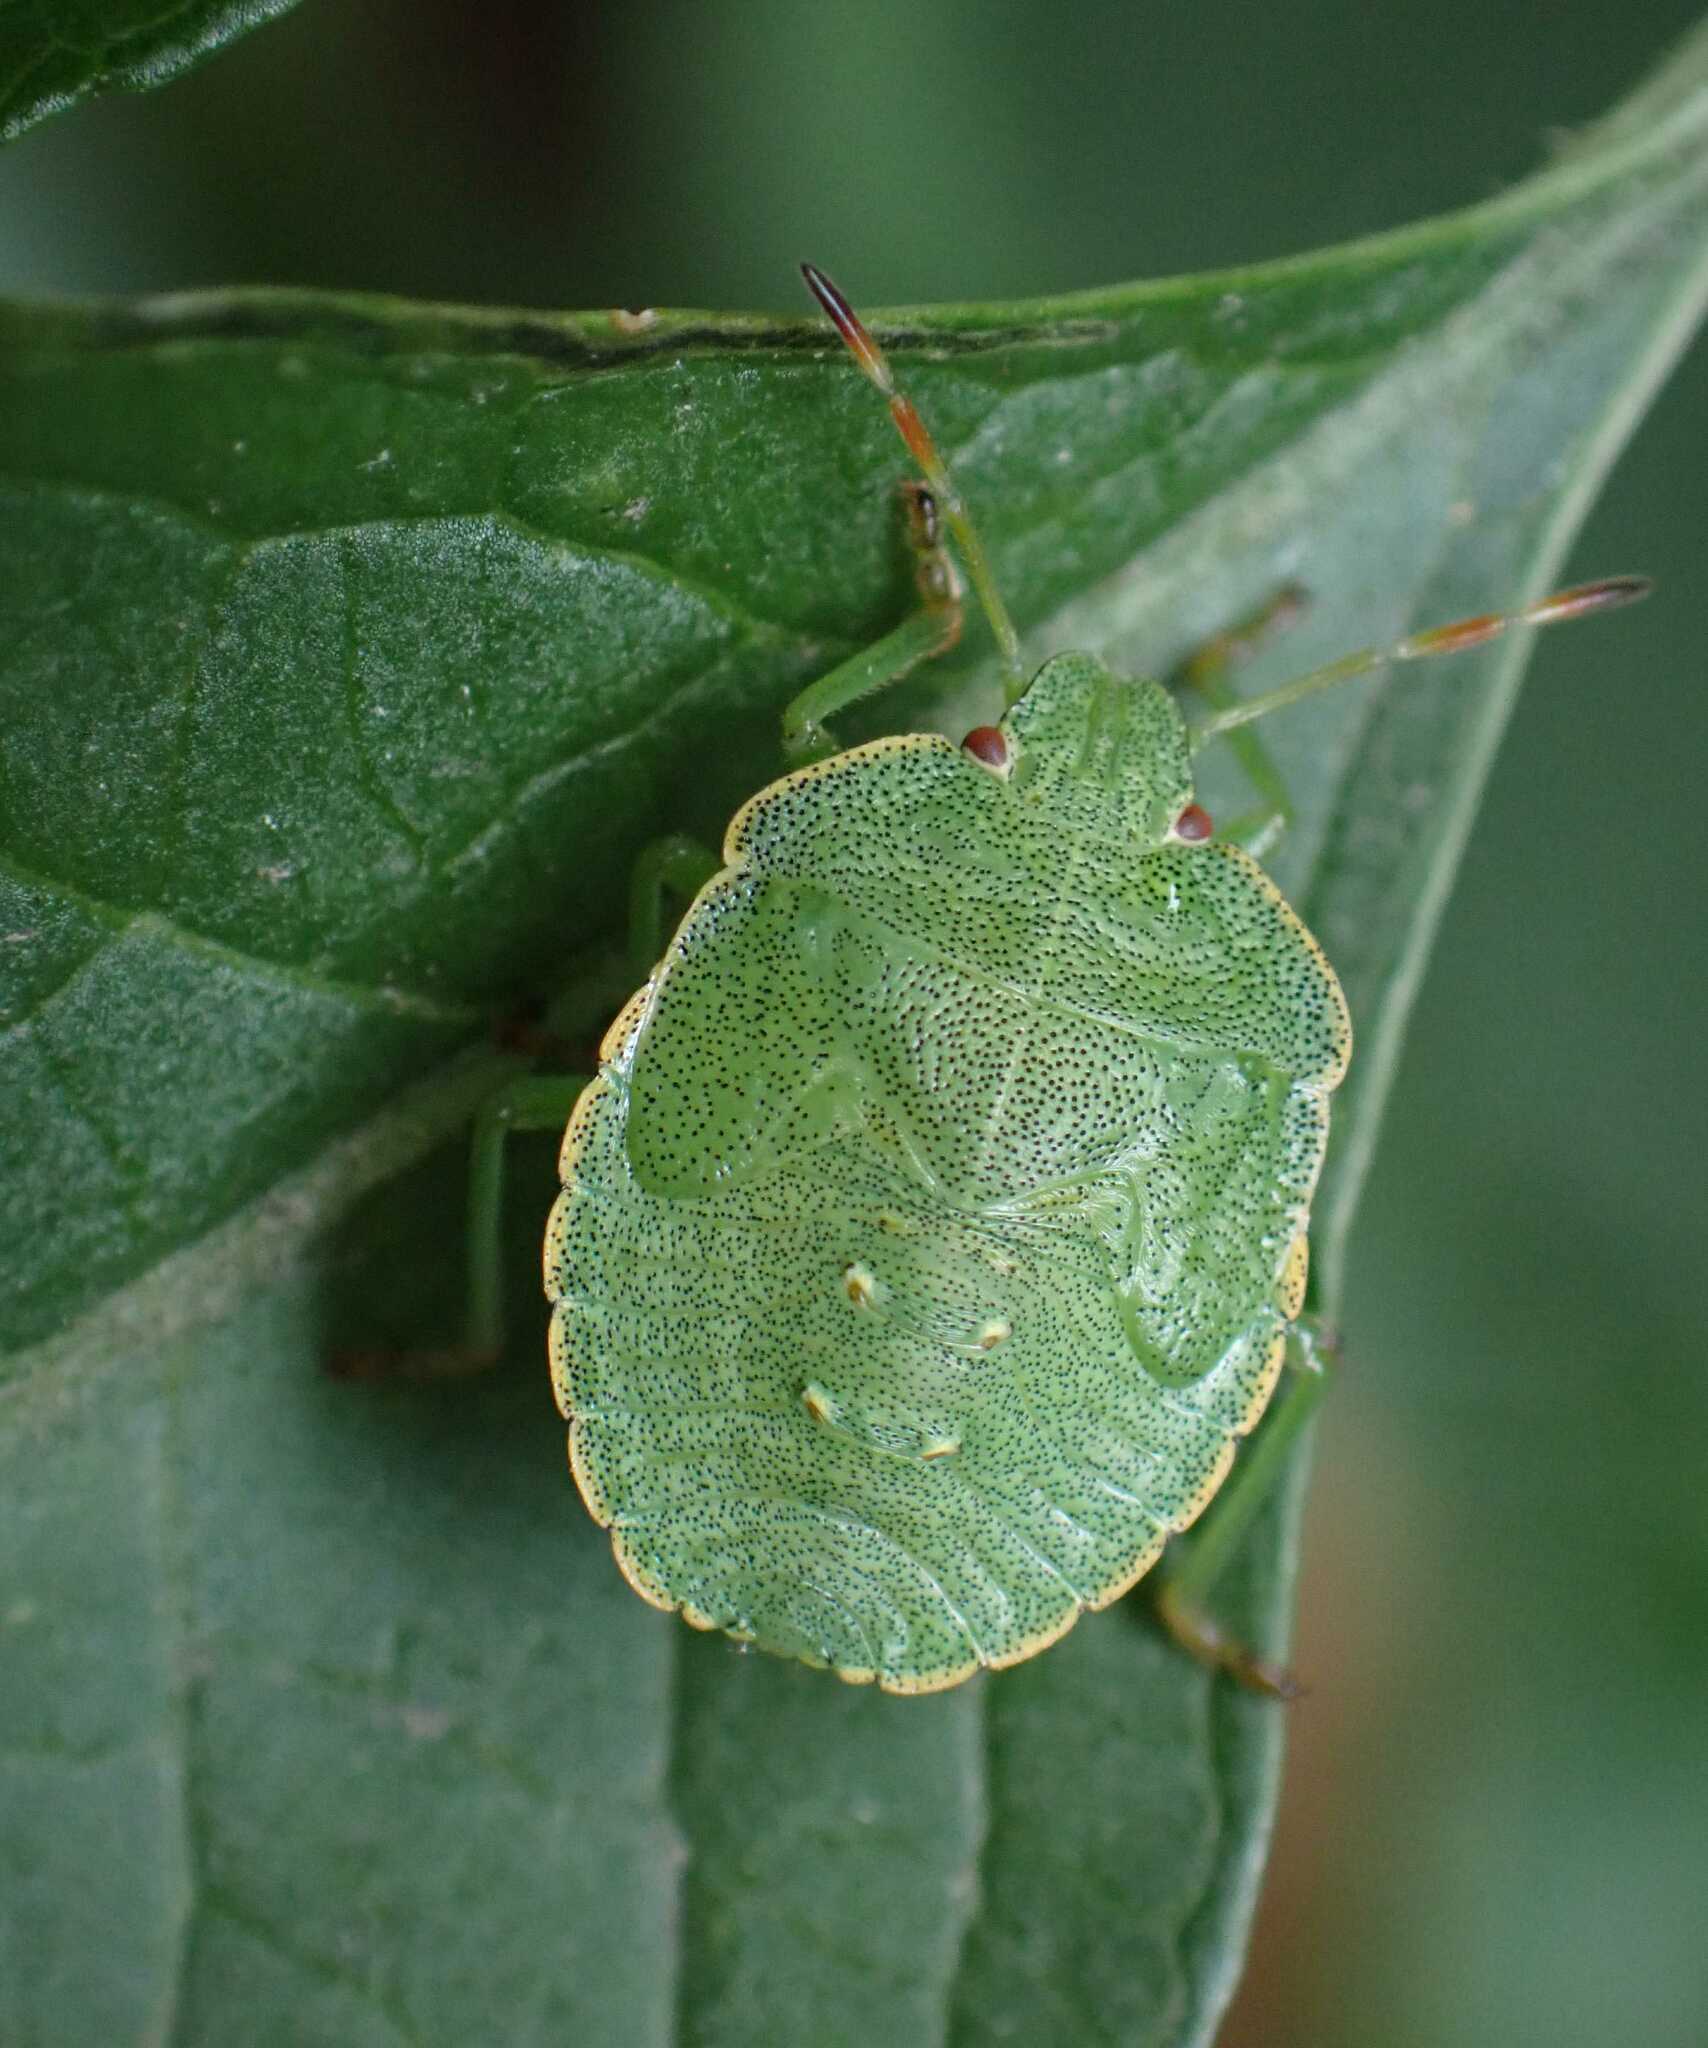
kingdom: Animalia
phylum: Arthropoda
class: Insecta
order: Hemiptera
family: Pentatomidae
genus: Palomena
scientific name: Palomena prasina
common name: Green shieldbug
